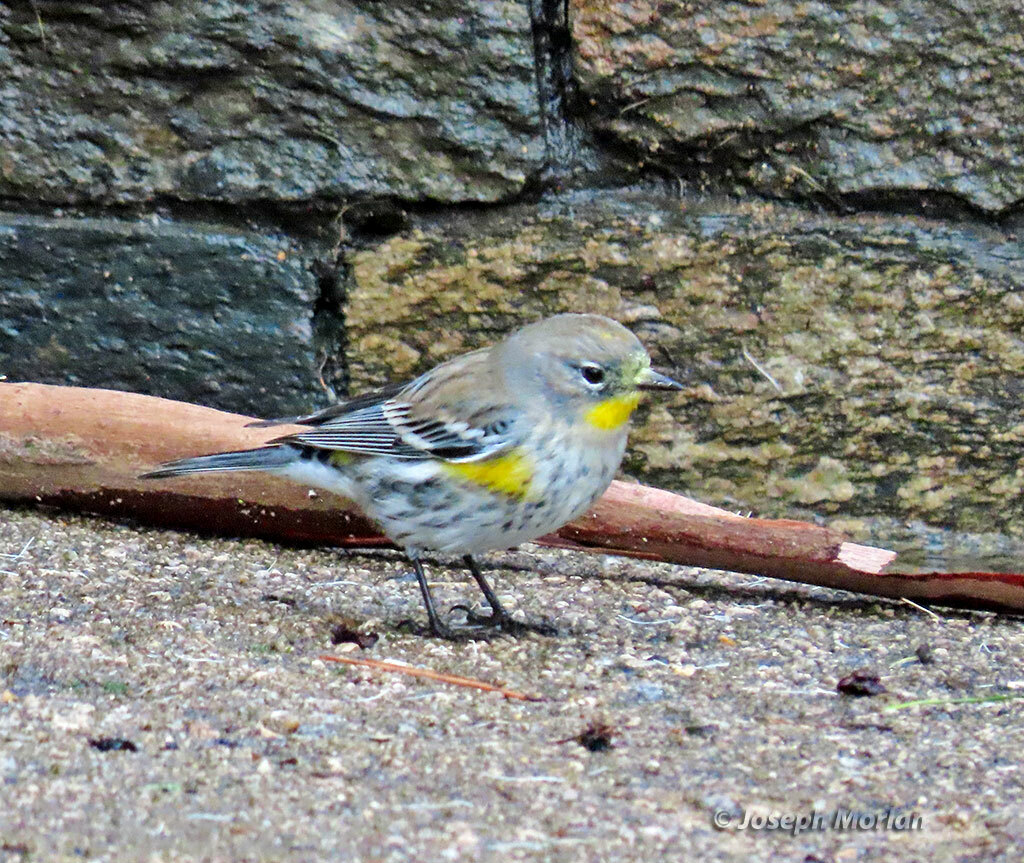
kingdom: Animalia
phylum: Chordata
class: Aves
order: Passeriformes
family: Parulidae
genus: Setophaga
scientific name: Setophaga coronata
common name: Myrtle warbler
